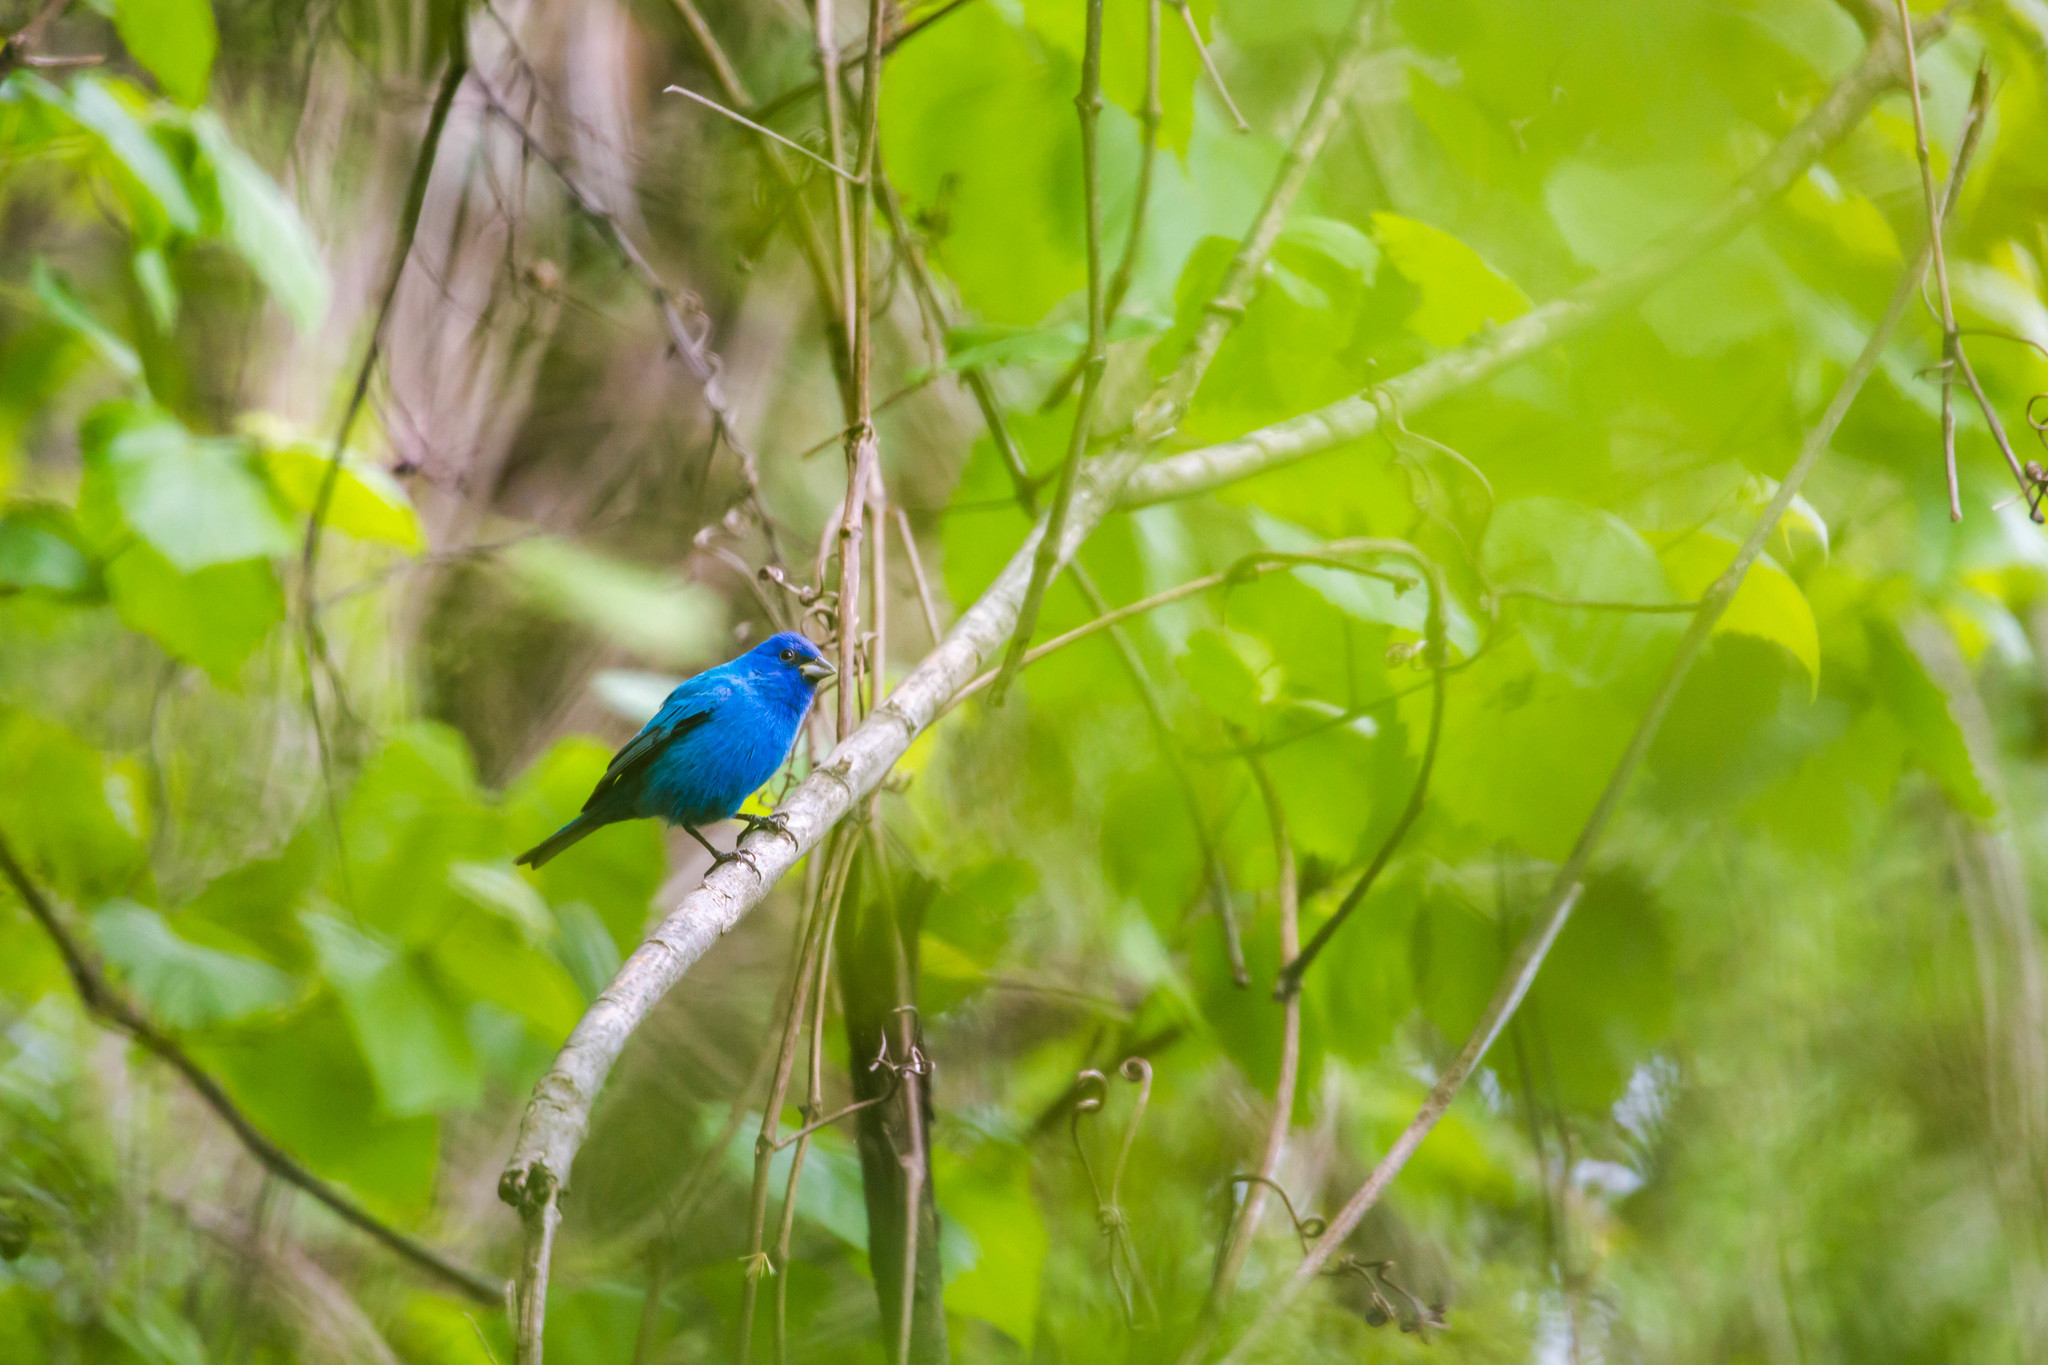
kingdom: Animalia
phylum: Chordata
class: Aves
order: Passeriformes
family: Cardinalidae
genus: Passerina
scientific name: Passerina cyanea
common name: Indigo bunting
